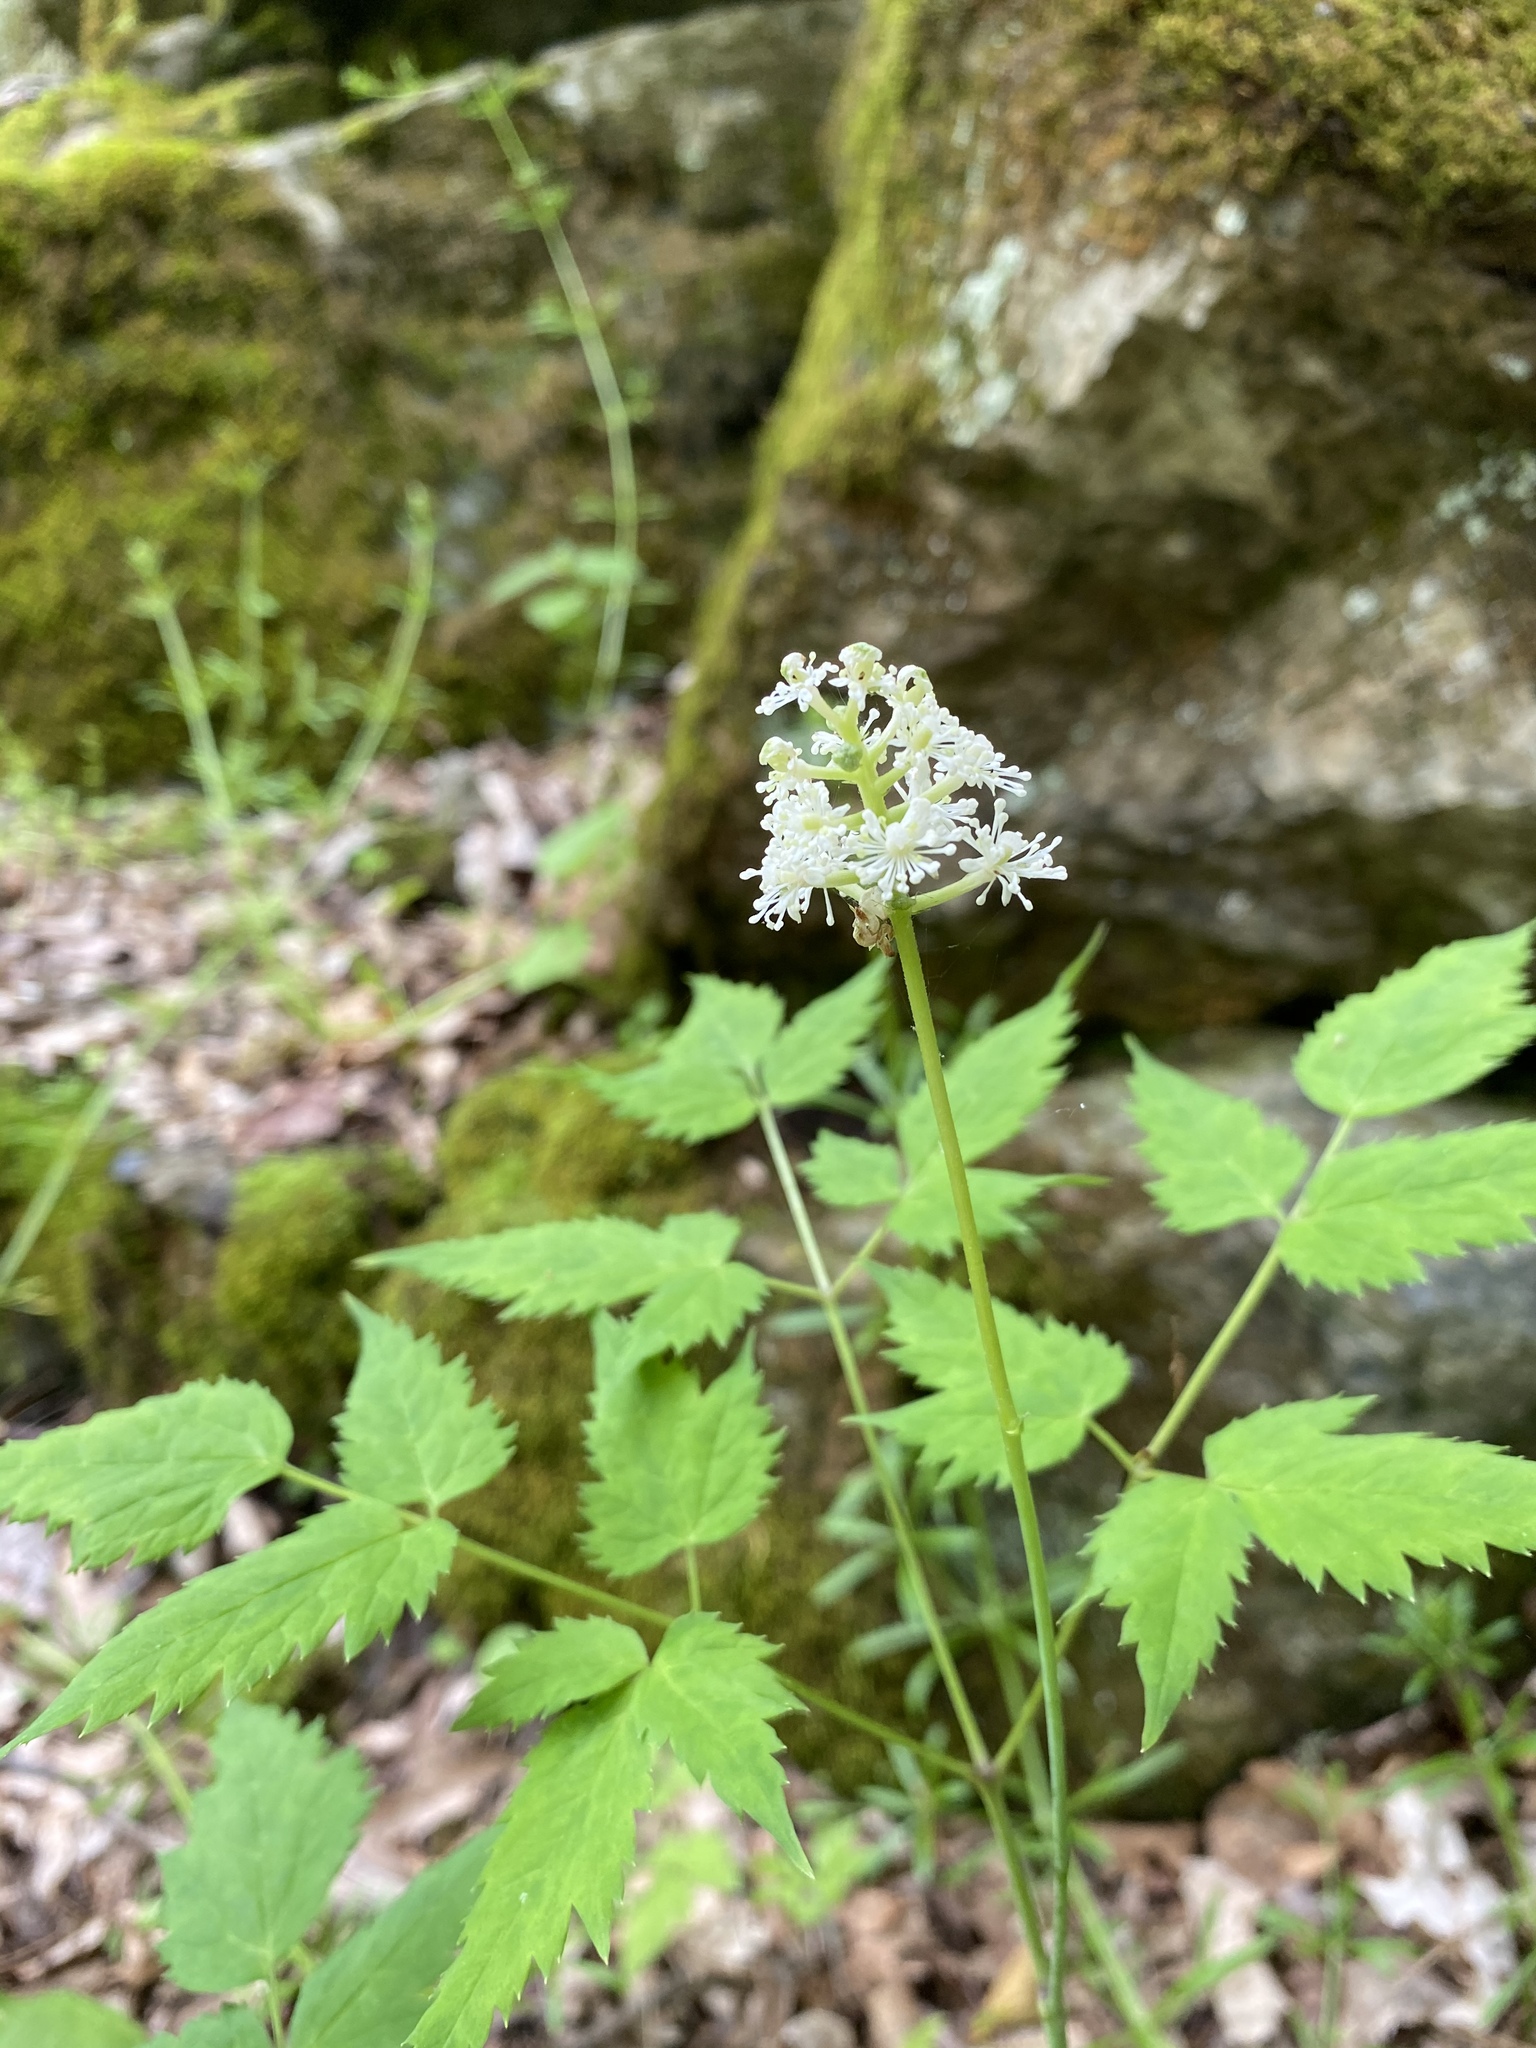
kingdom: Plantae
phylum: Tracheophyta
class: Magnoliopsida
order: Ranunculales
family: Ranunculaceae
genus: Actaea
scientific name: Actaea pachypoda
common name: Doll's-eyes
